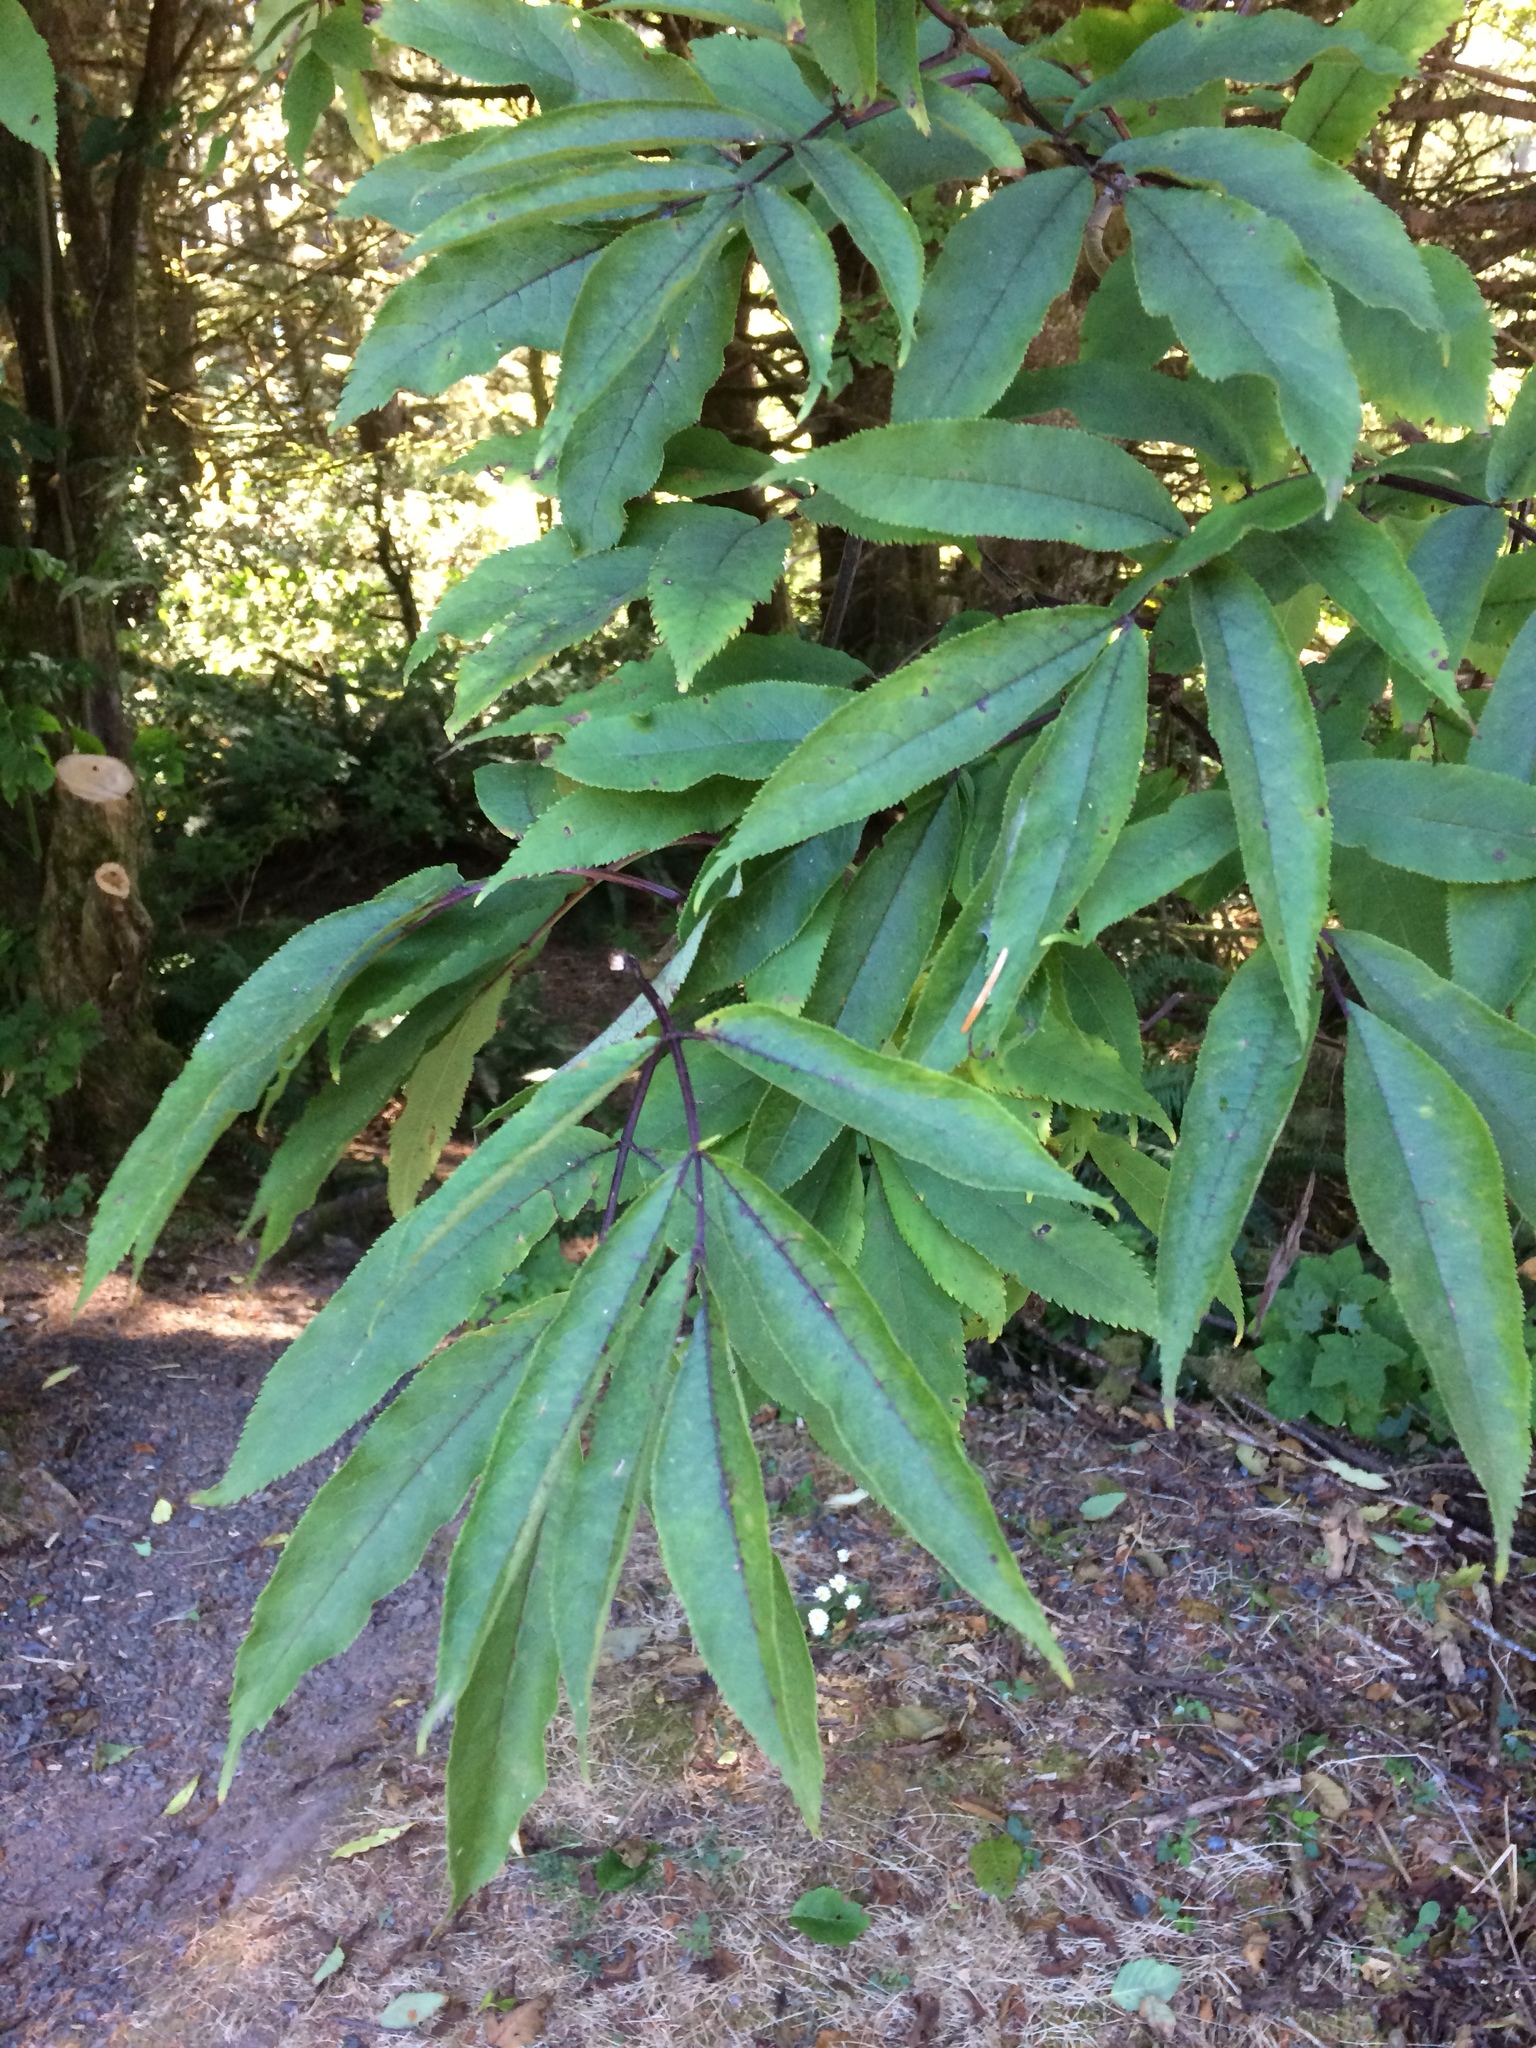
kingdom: Plantae
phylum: Tracheophyta
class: Magnoliopsida
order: Dipsacales
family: Viburnaceae
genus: Sambucus
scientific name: Sambucus racemosa
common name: Red-berried elder
